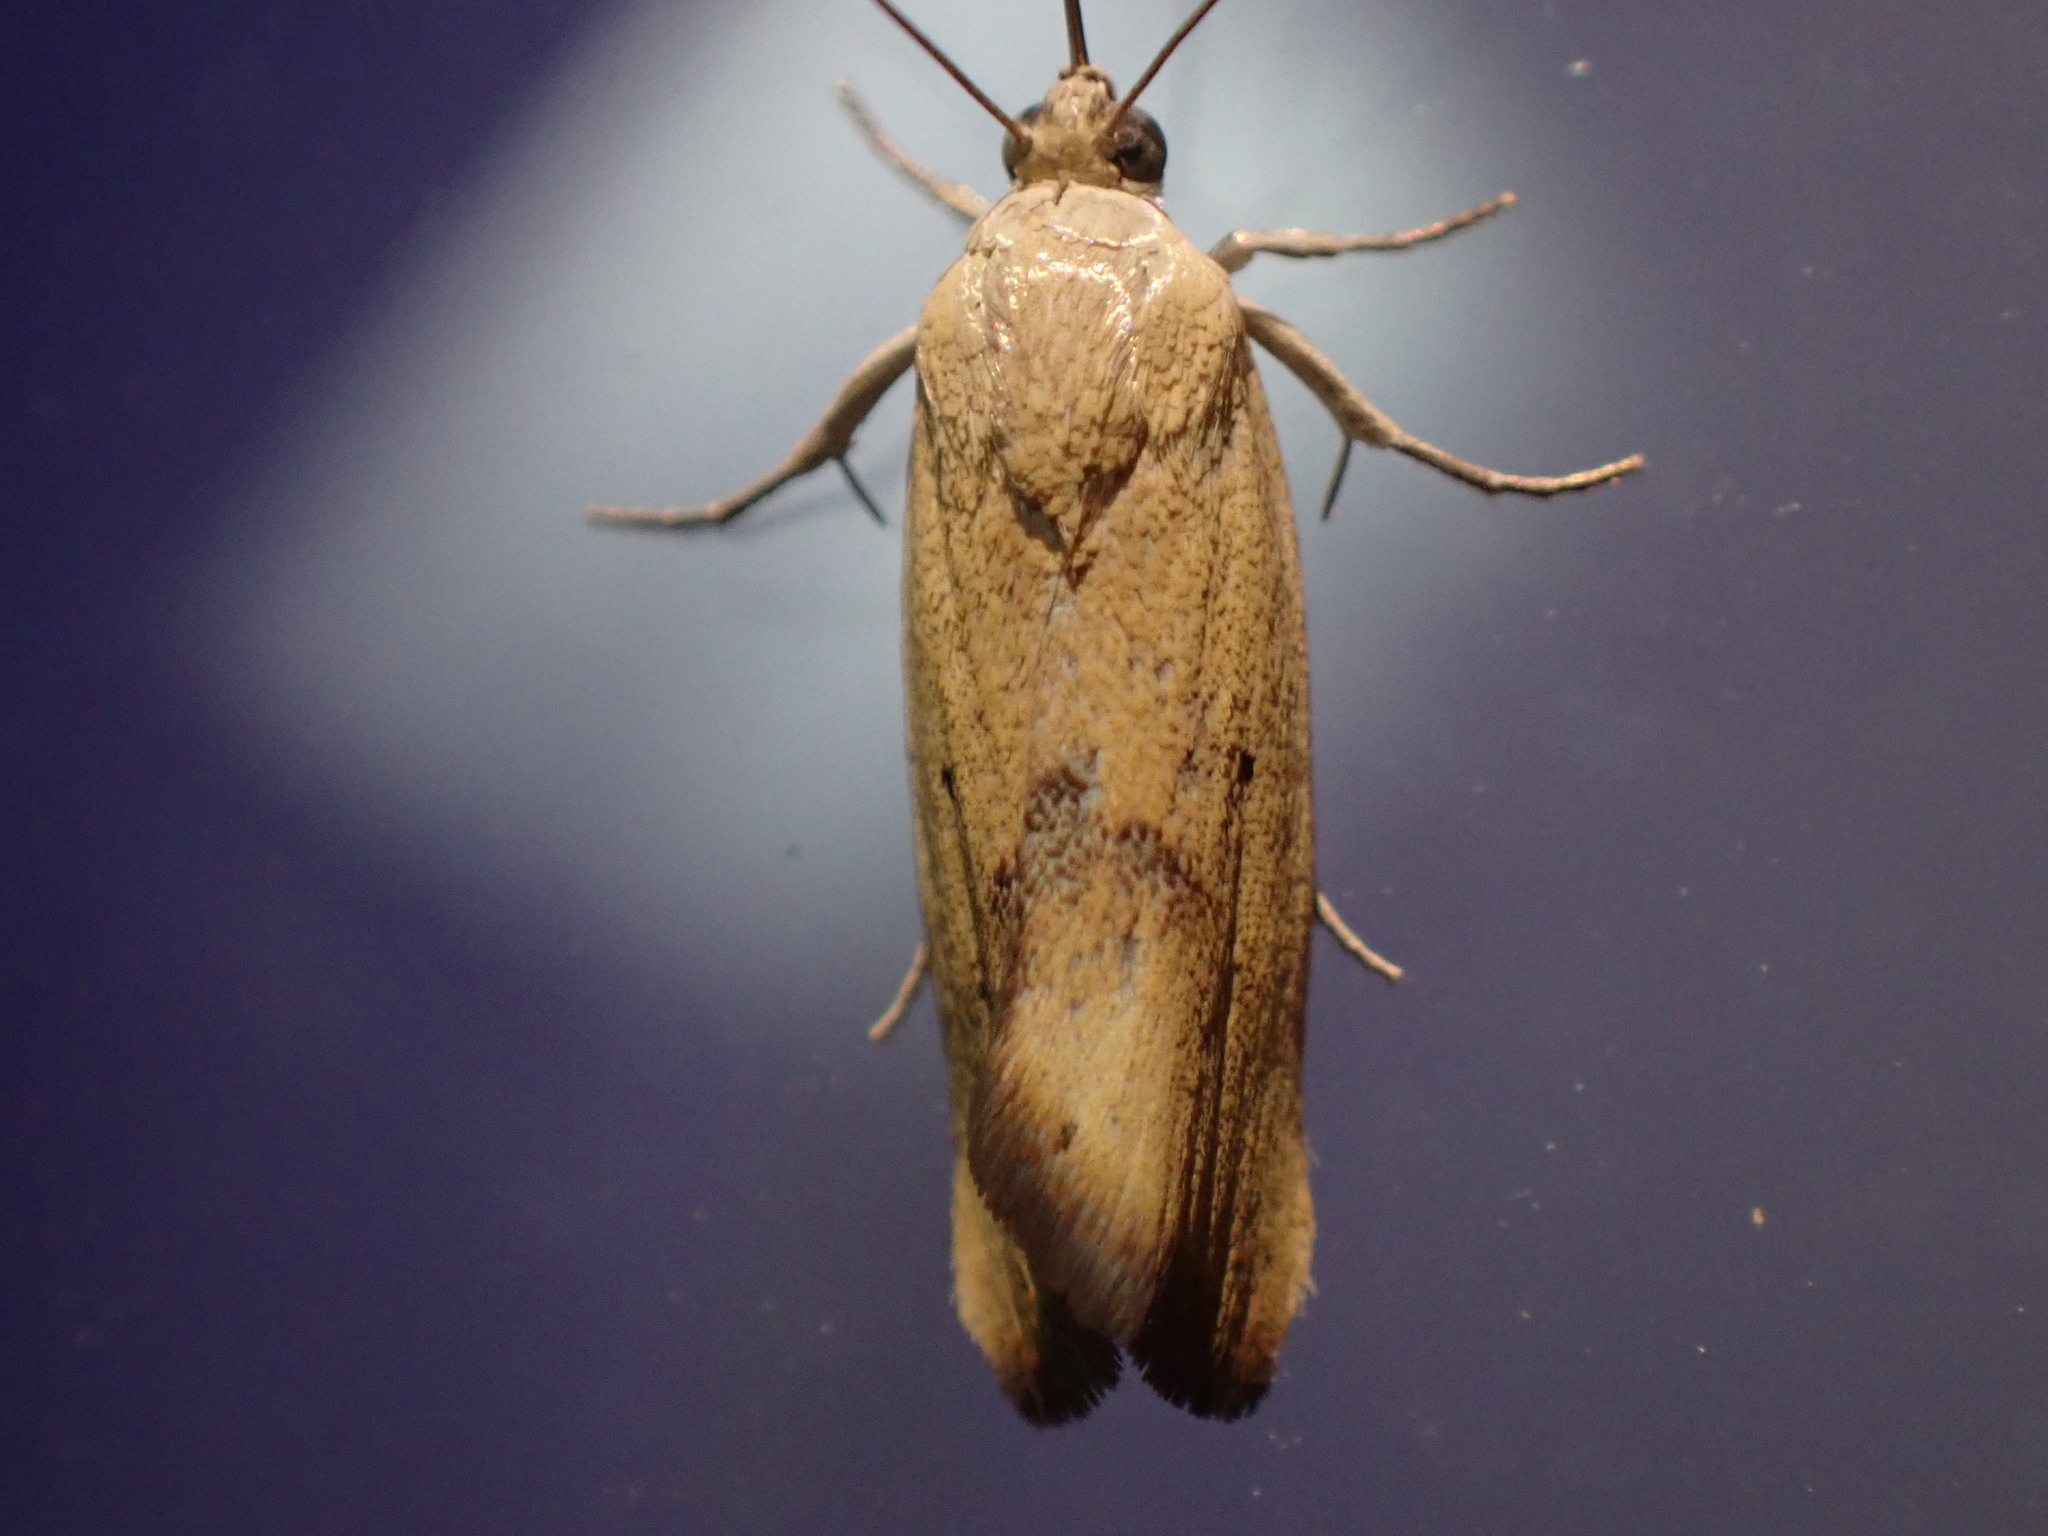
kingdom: Animalia
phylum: Arthropoda
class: Insecta
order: Lepidoptera
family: Noctuidae
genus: Acontia
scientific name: Acontia tortricina
